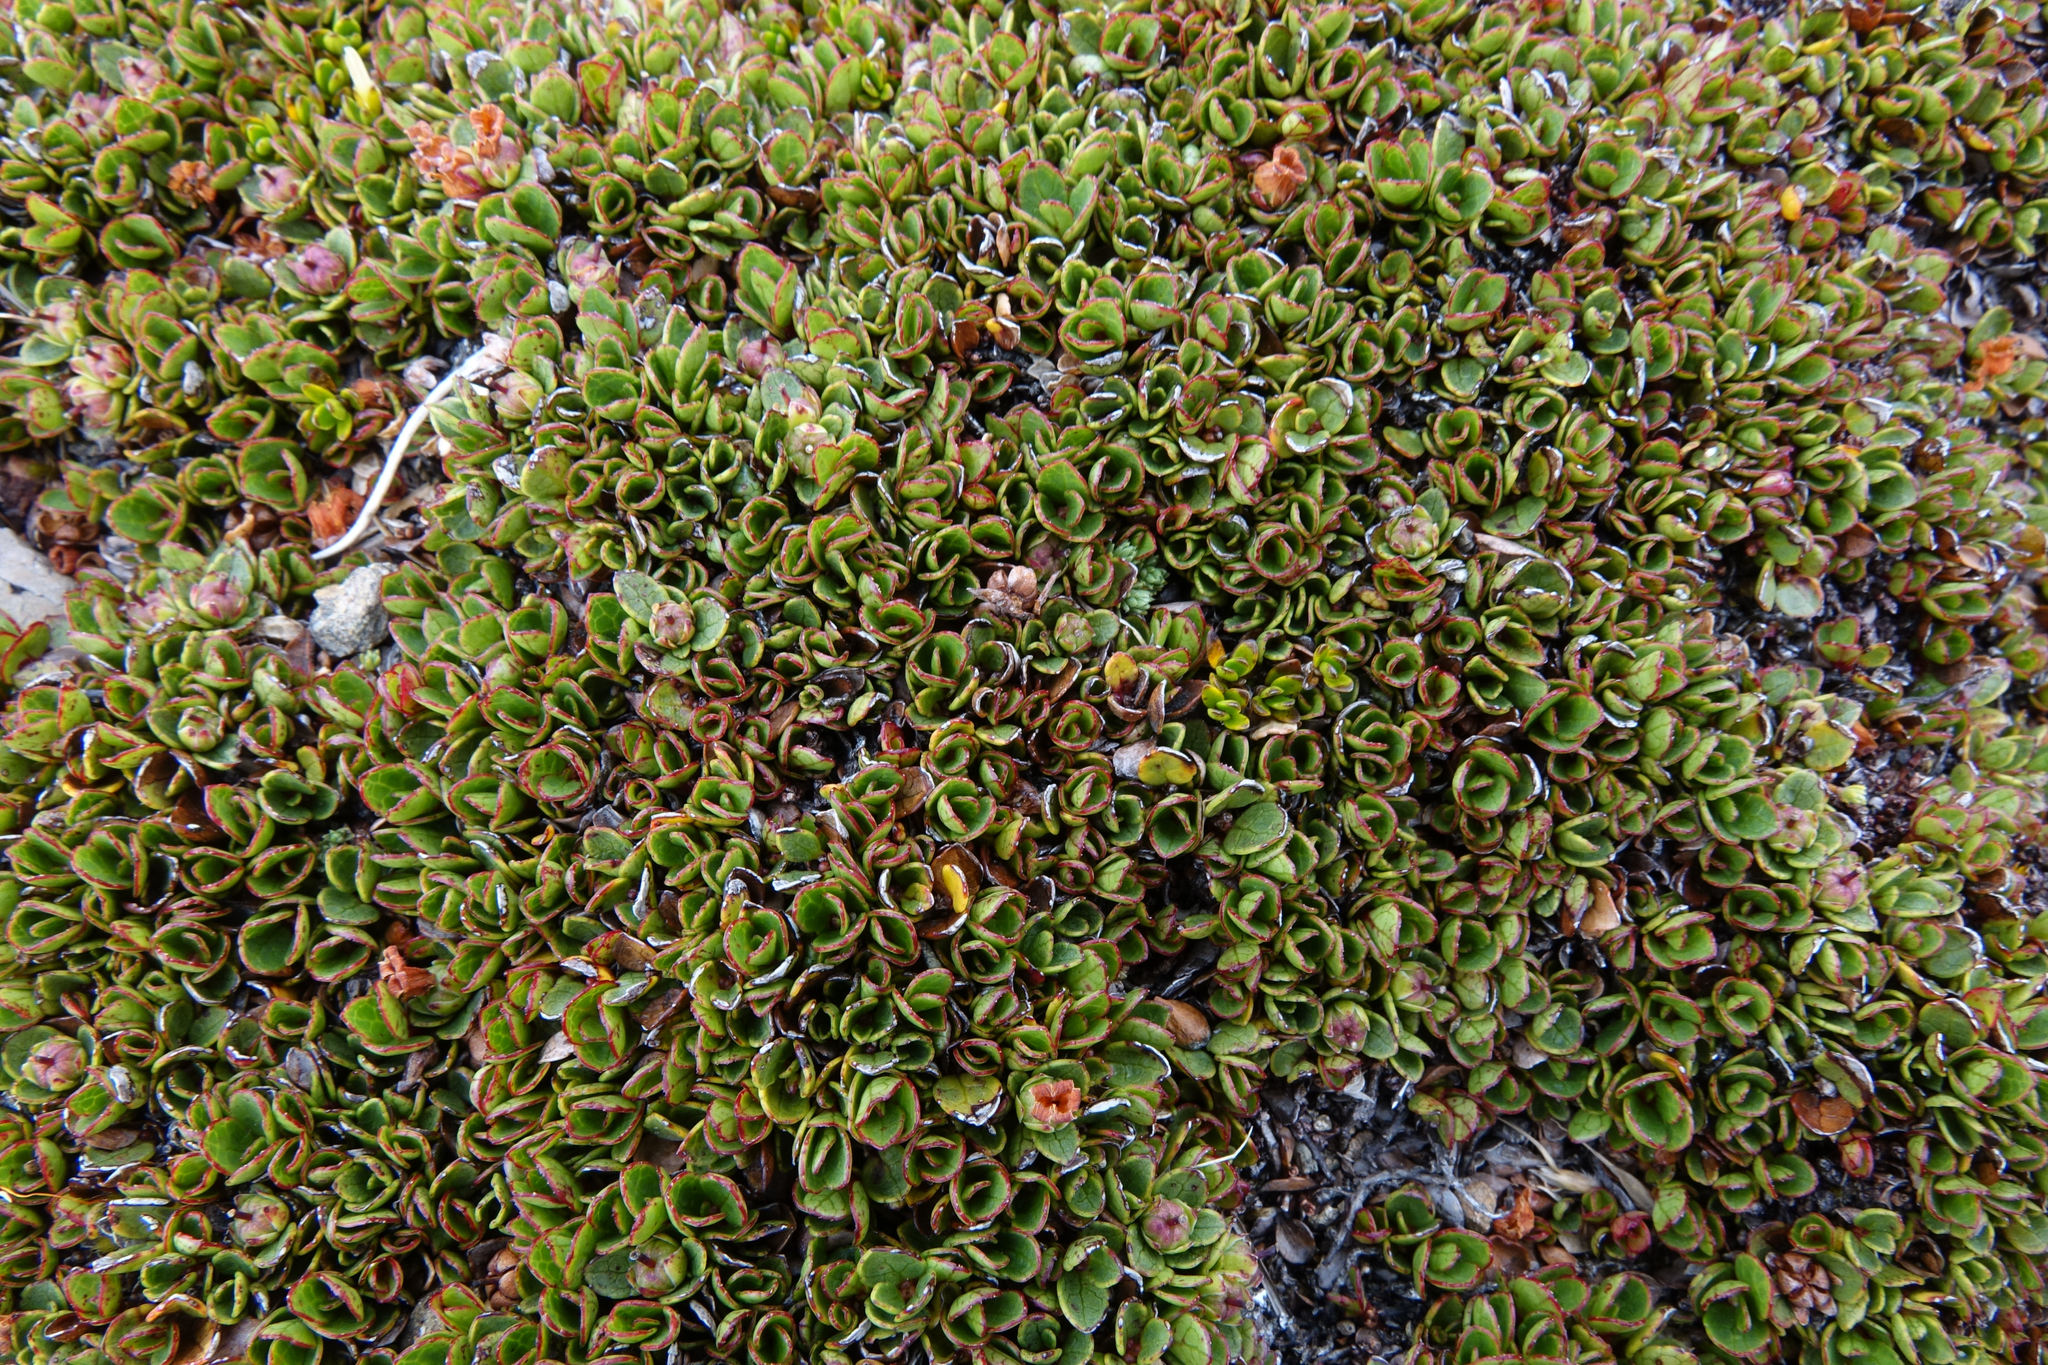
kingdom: Plantae
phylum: Tracheophyta
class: Magnoliopsida
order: Ericales
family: Ericaceae
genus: Gaultheria
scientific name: Gaultheria nubicola
